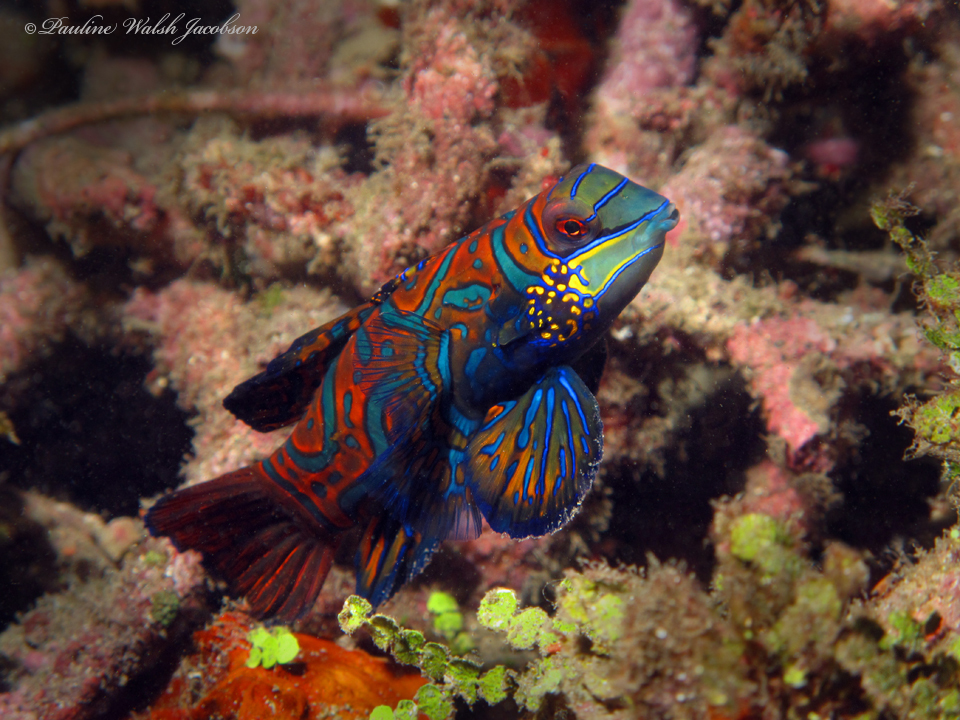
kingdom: Animalia
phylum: Chordata
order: Perciformes
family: Callionymidae
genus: Synchiropus
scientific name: Synchiropus splendidus
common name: Mandarinfish
